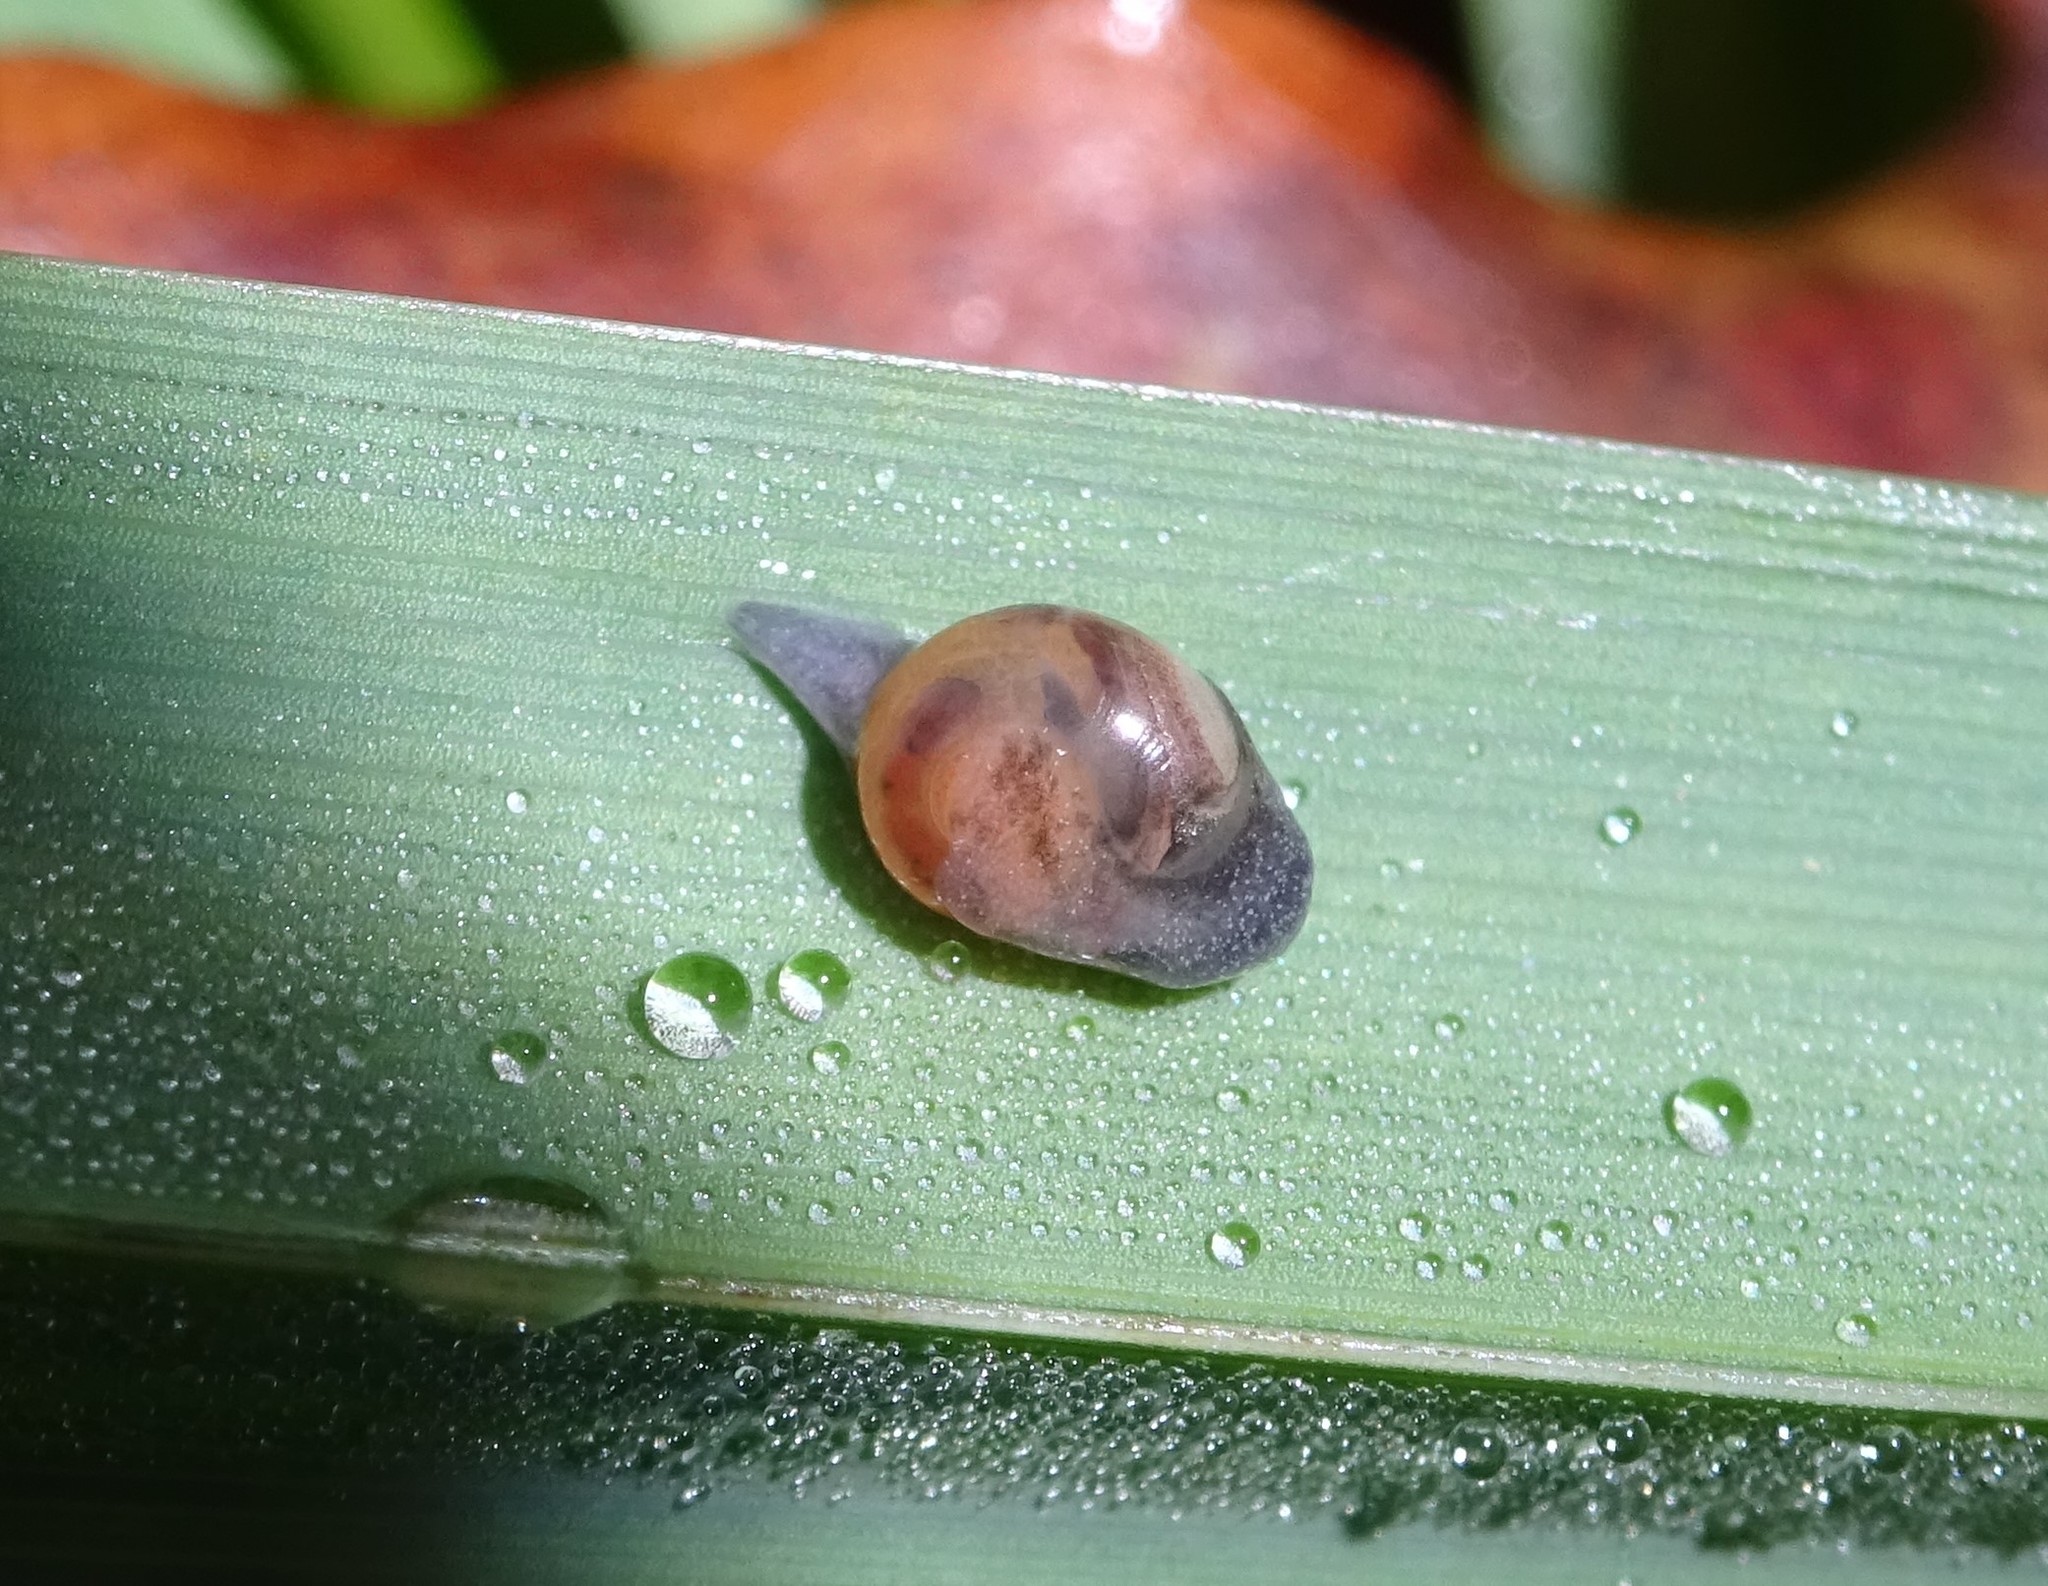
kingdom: Animalia
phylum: Mollusca
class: Gastropoda
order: Stylommatophora
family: Vitrinidae
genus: Vitrina
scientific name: Vitrina pellucida
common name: Pellucid glass snail
